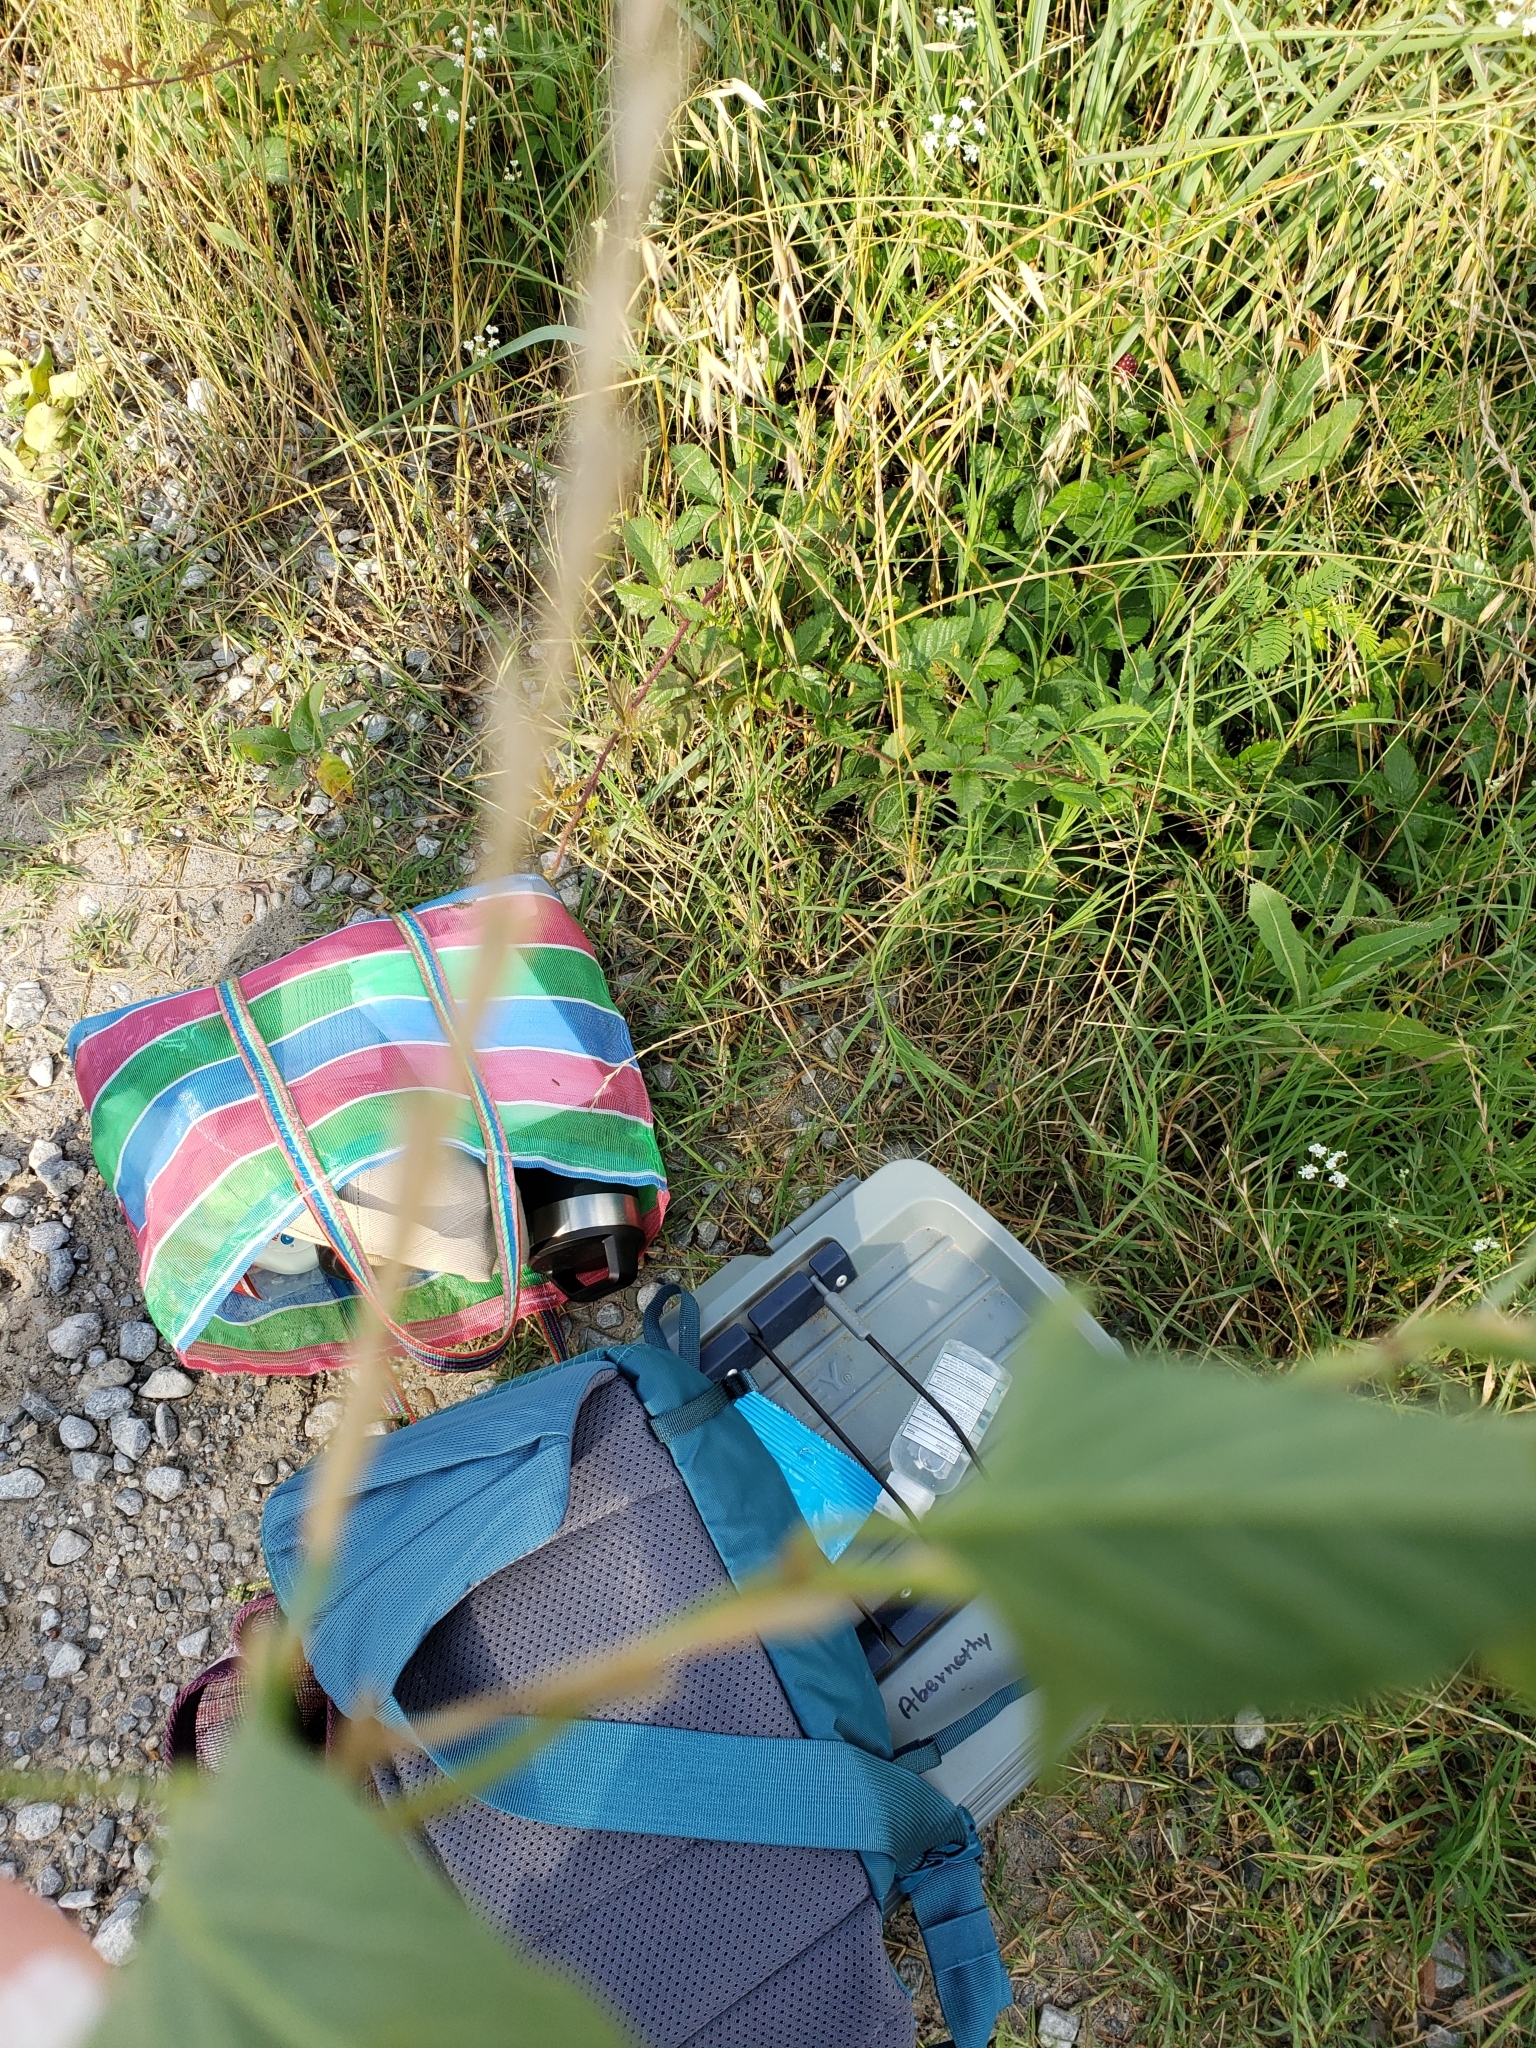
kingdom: Plantae
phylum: Tracheophyta
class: Magnoliopsida
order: Solanales
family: Convolvulaceae
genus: Convolvulus
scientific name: Convolvulus arvensis
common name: Field bindweed
